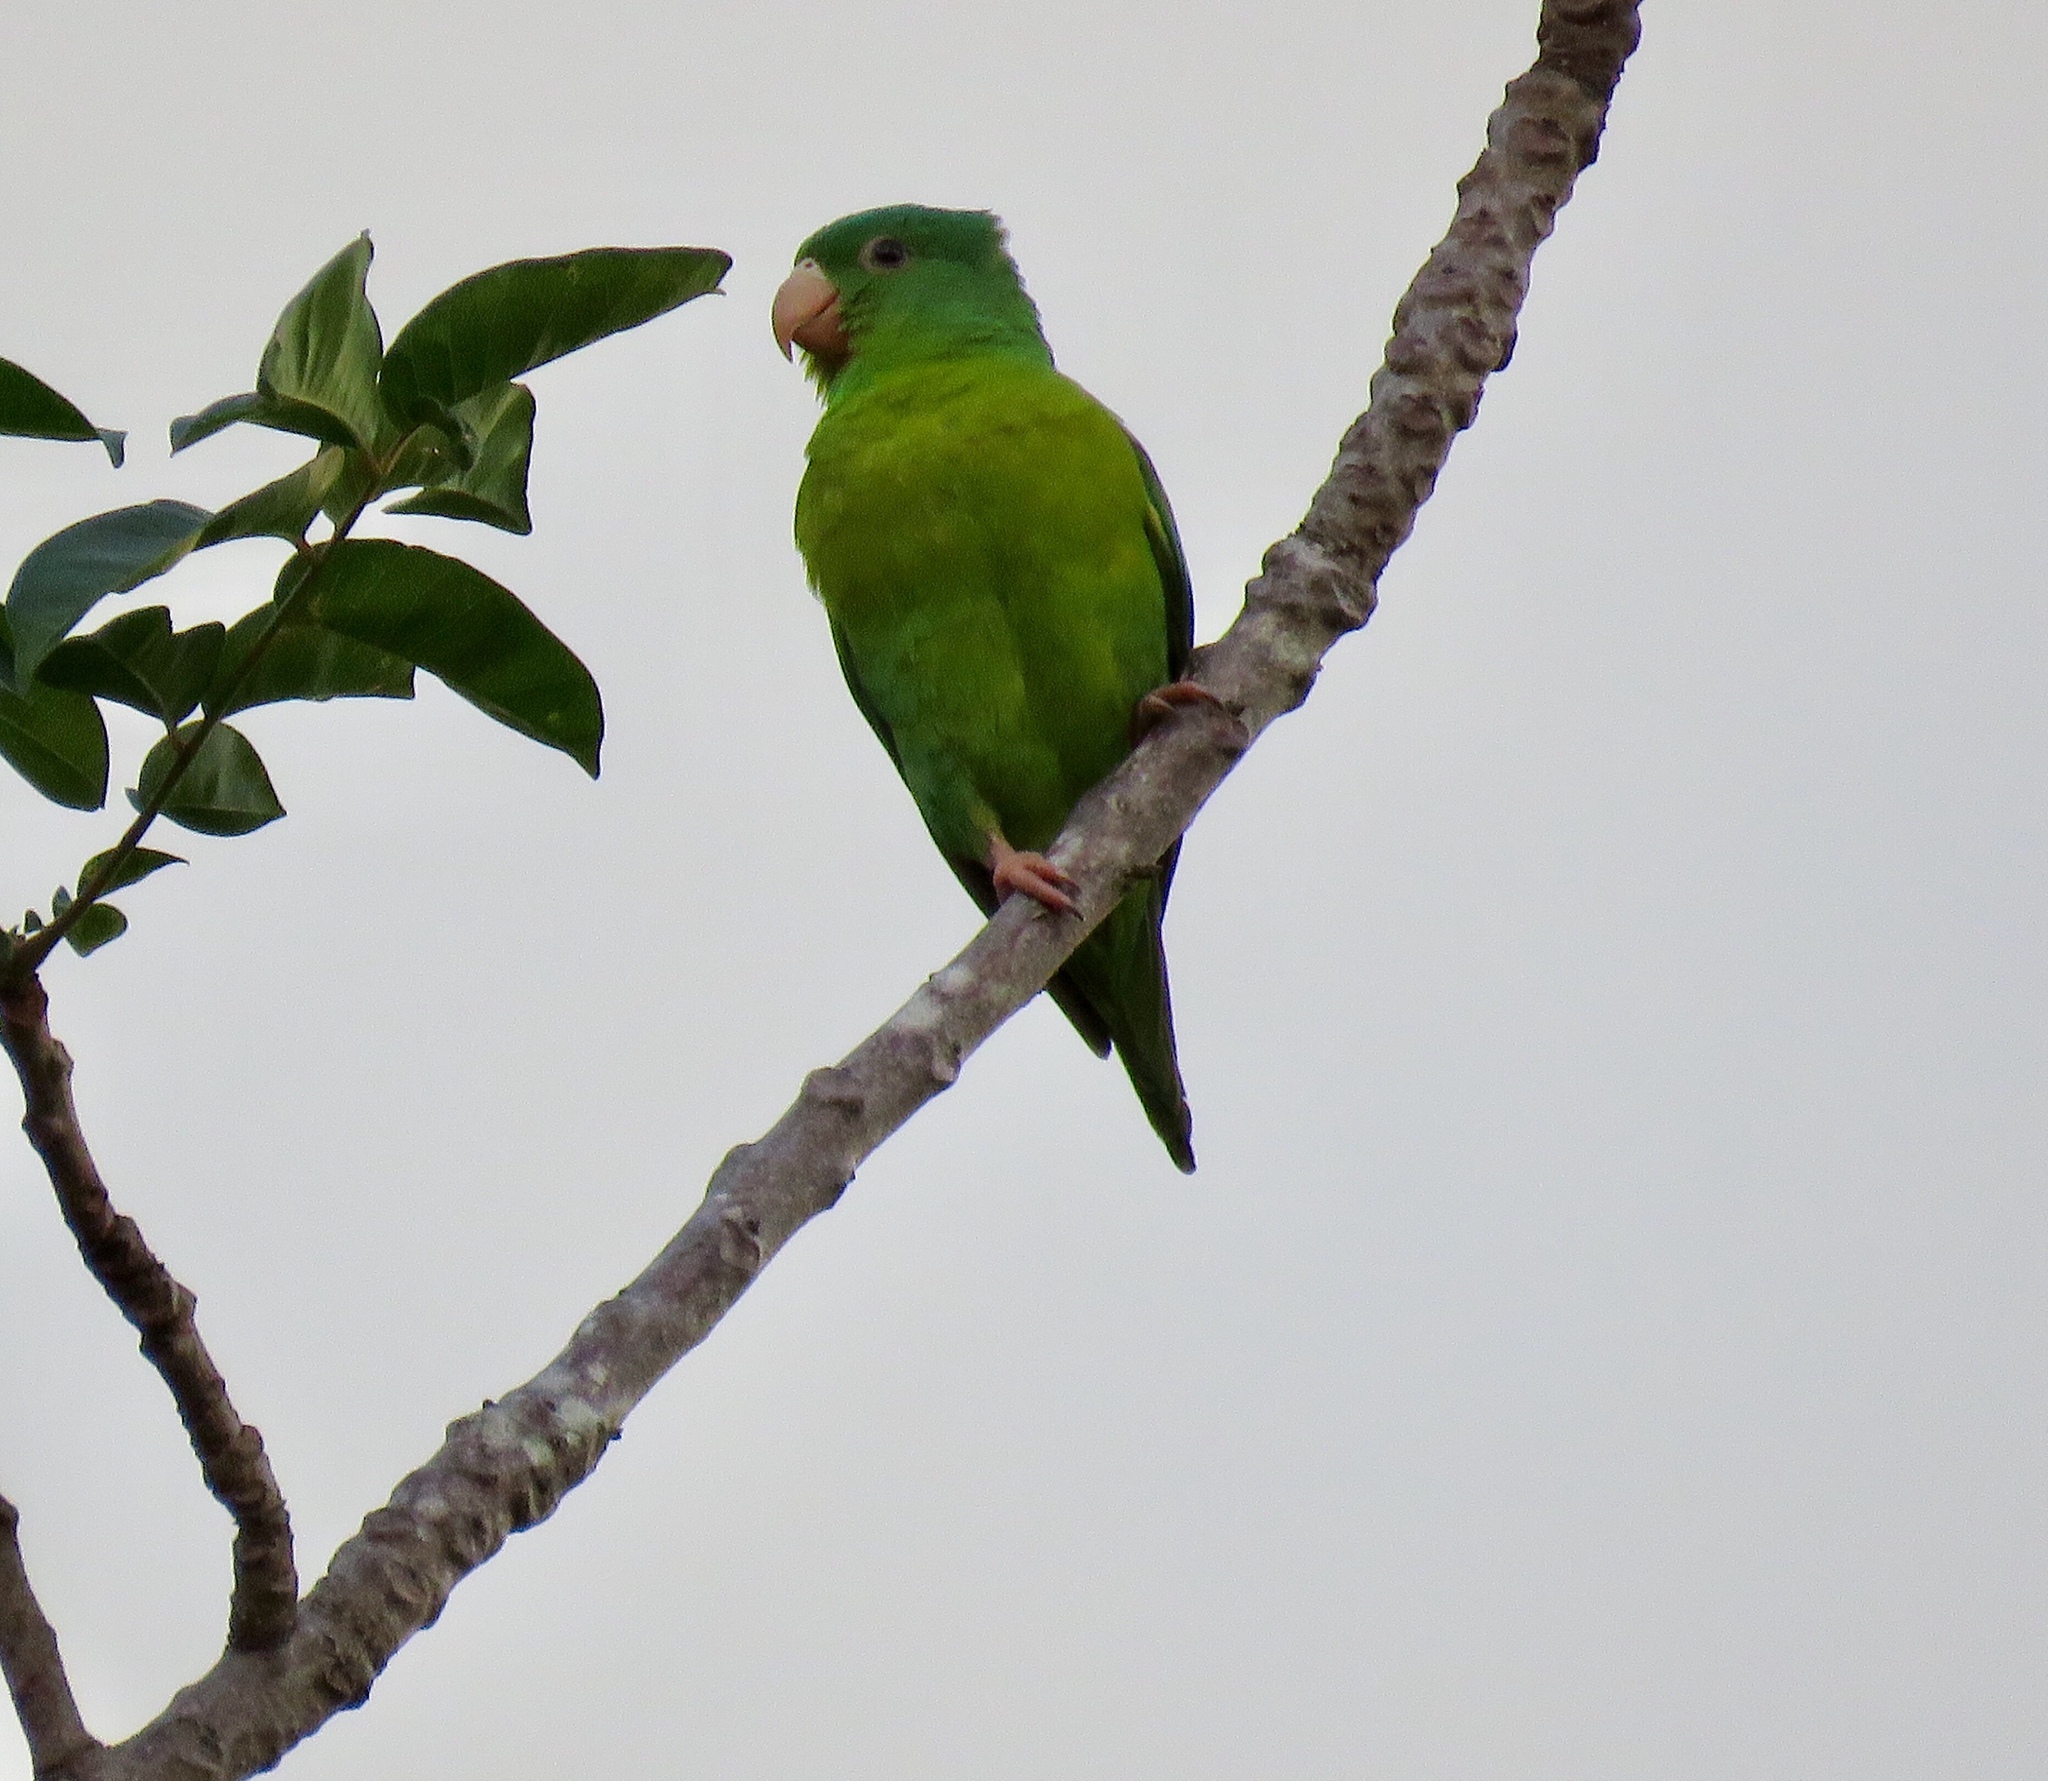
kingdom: Animalia
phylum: Chordata
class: Aves
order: Psittaciformes
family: Psittacidae
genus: Brotogeris
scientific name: Brotogeris jugularis
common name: Orange-chinned parakeet
